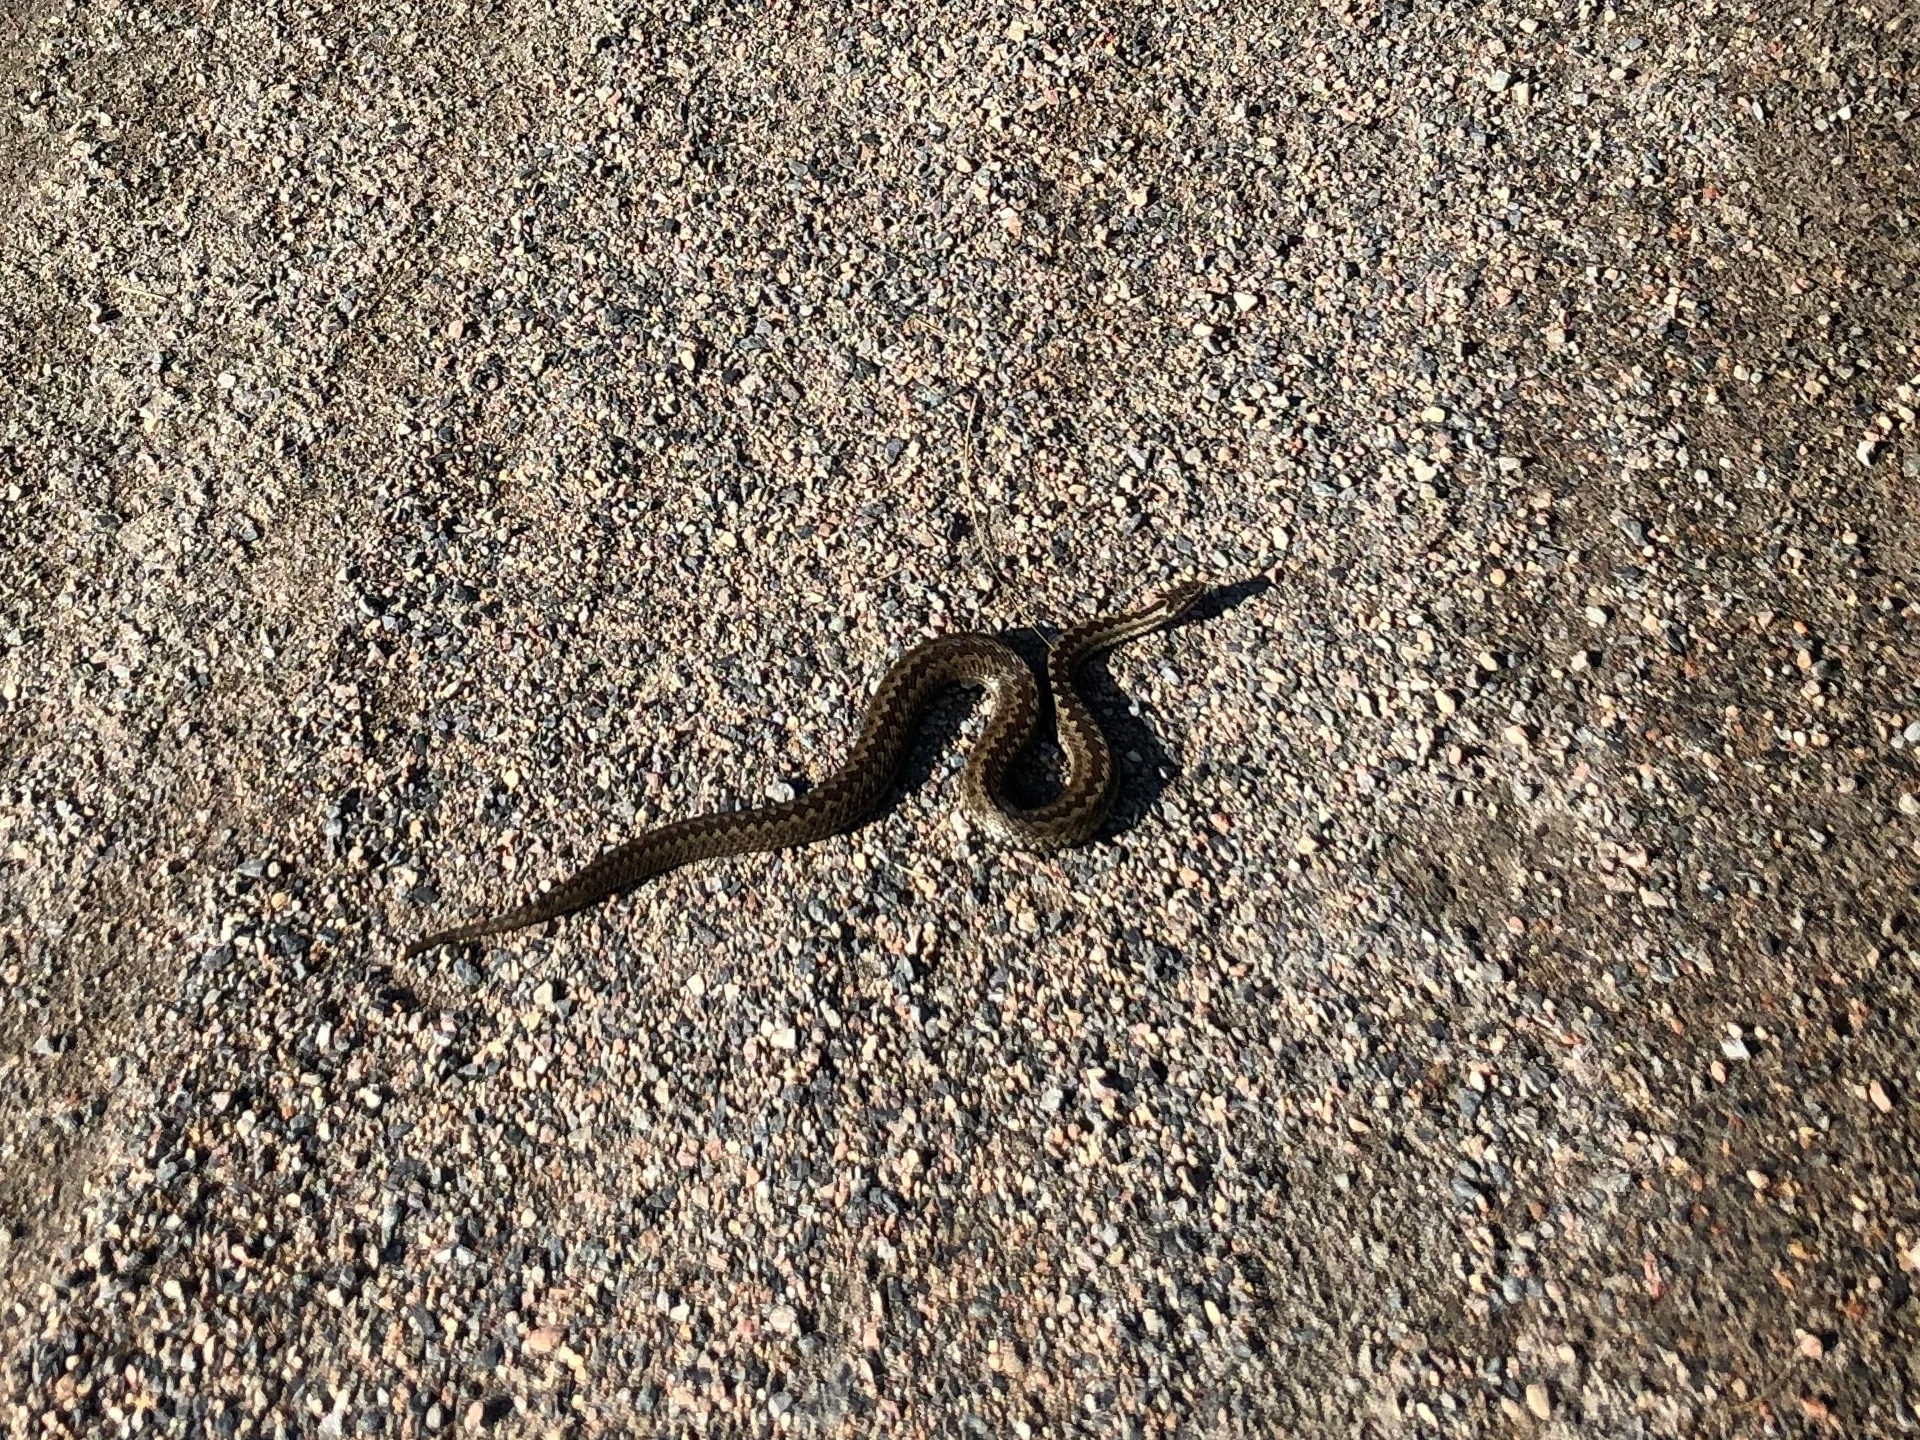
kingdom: Animalia
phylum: Chordata
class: Squamata
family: Viperidae
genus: Vipera
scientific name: Vipera berus
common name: Adder
